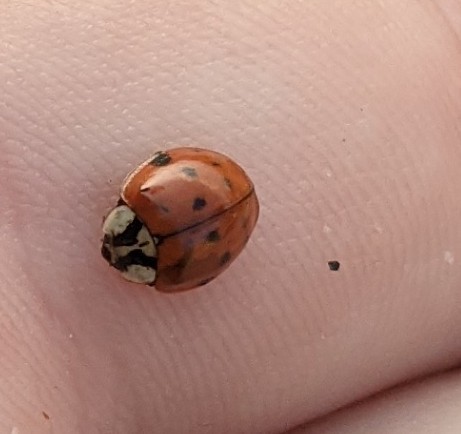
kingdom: Animalia
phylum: Arthropoda
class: Insecta
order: Coleoptera
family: Coccinellidae
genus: Harmonia
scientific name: Harmonia axyridis
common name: Harlequin ladybird
